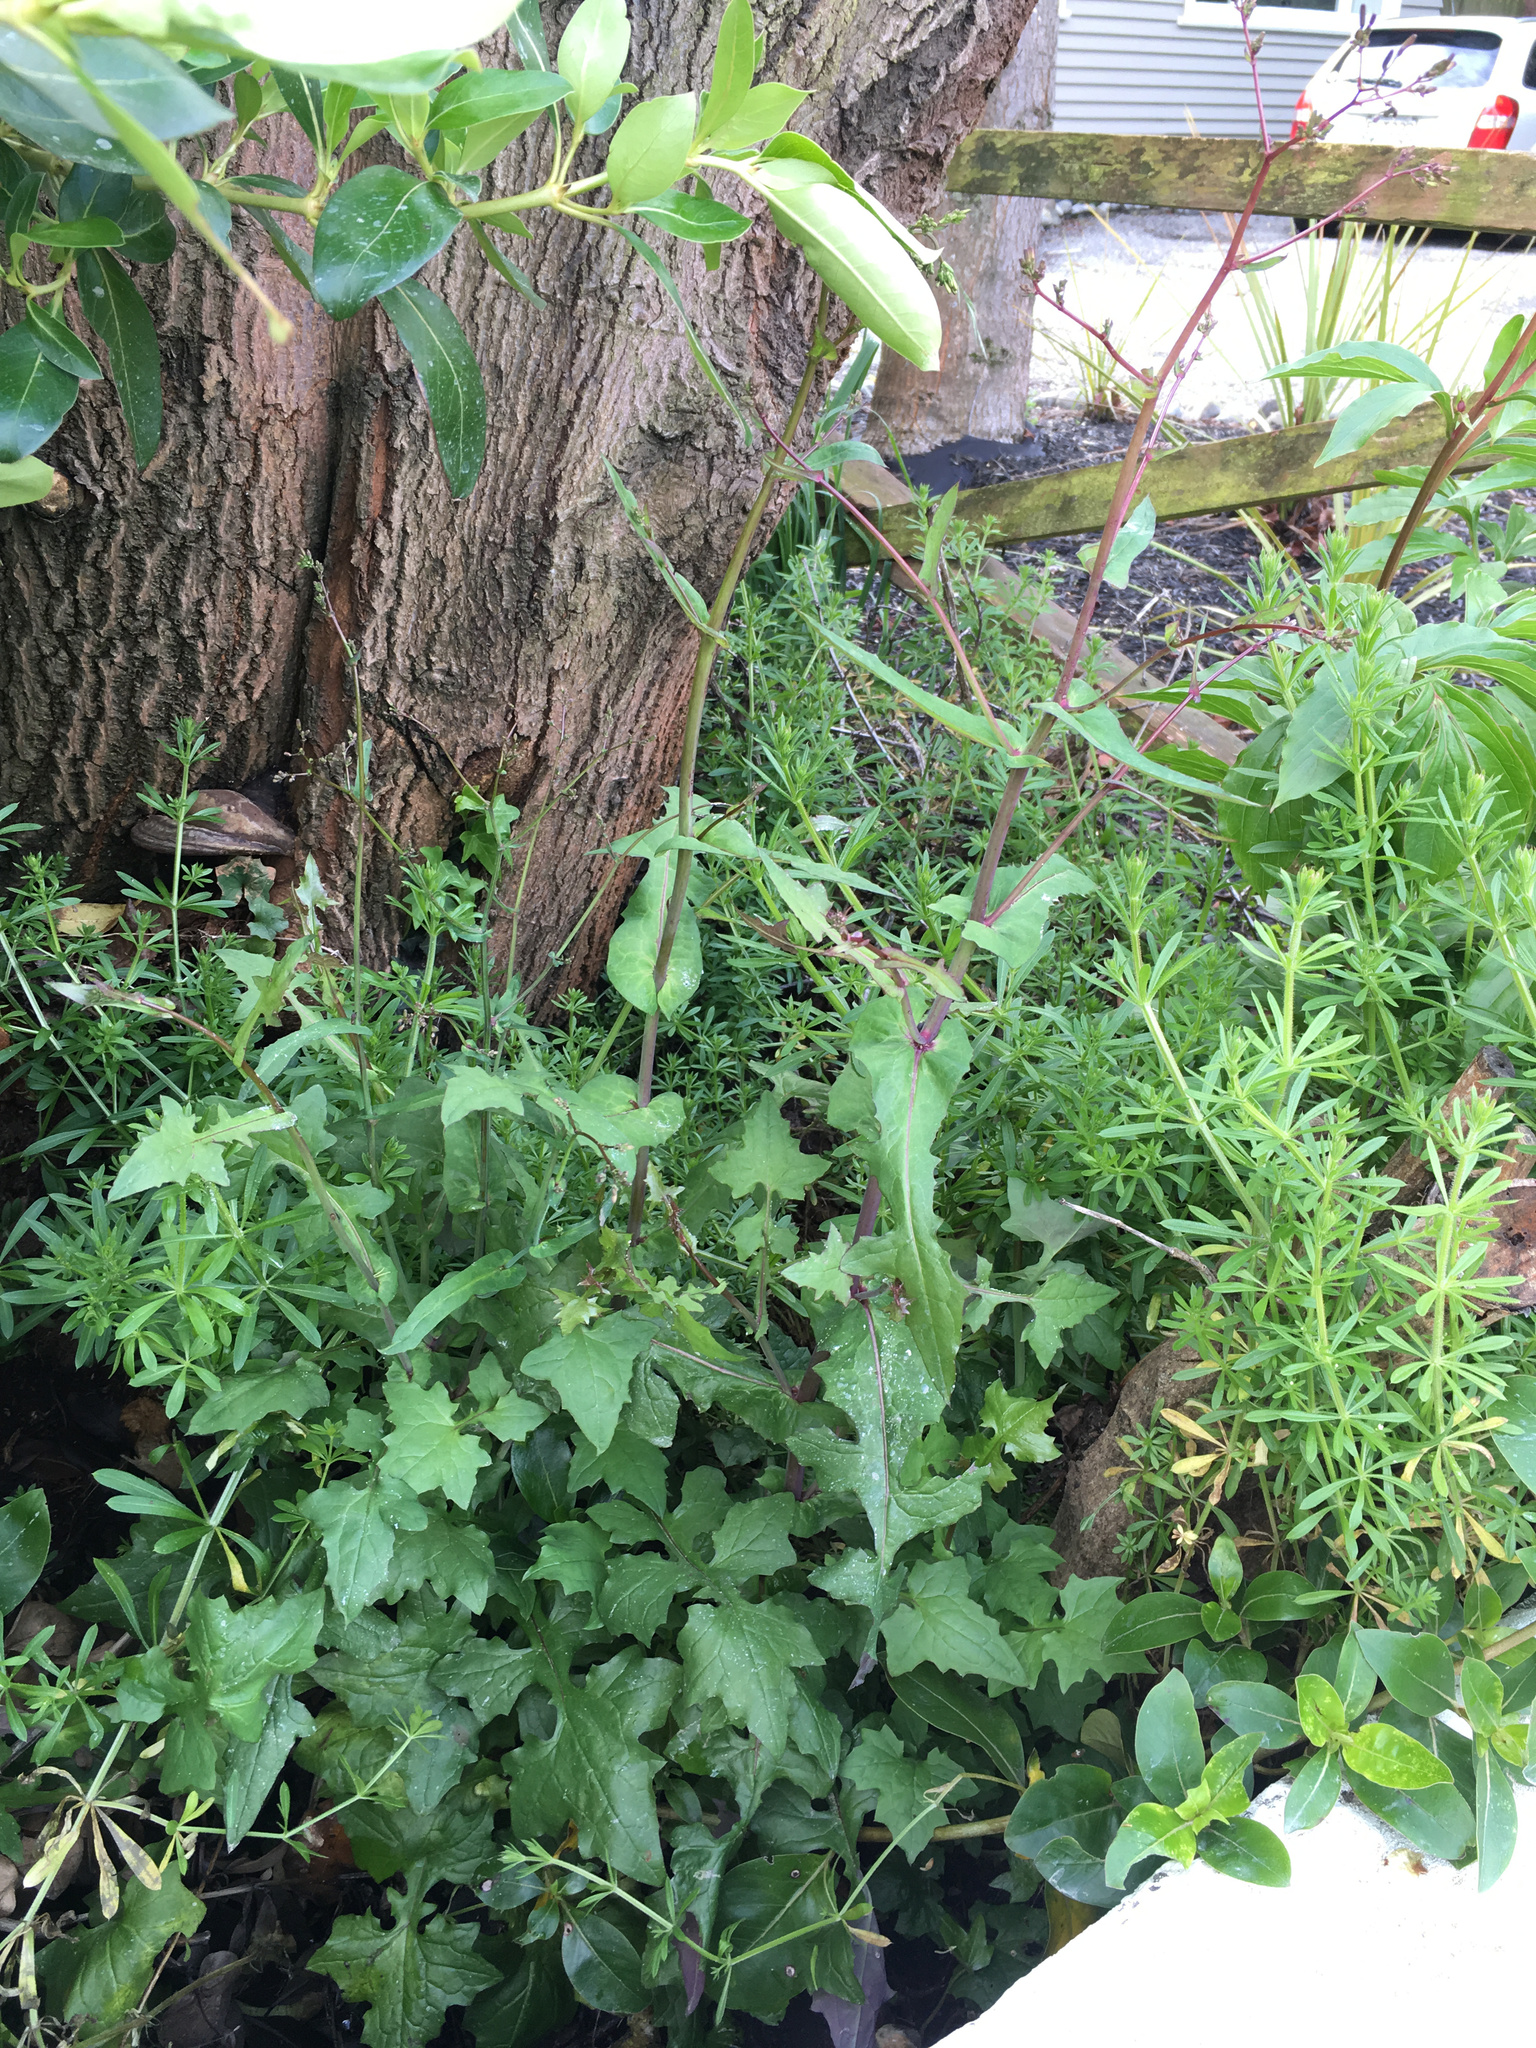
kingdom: Plantae
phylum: Tracheophyta
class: Magnoliopsida
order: Asterales
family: Asteraceae
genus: Mycelis
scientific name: Mycelis muralis
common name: Wall lettuce
